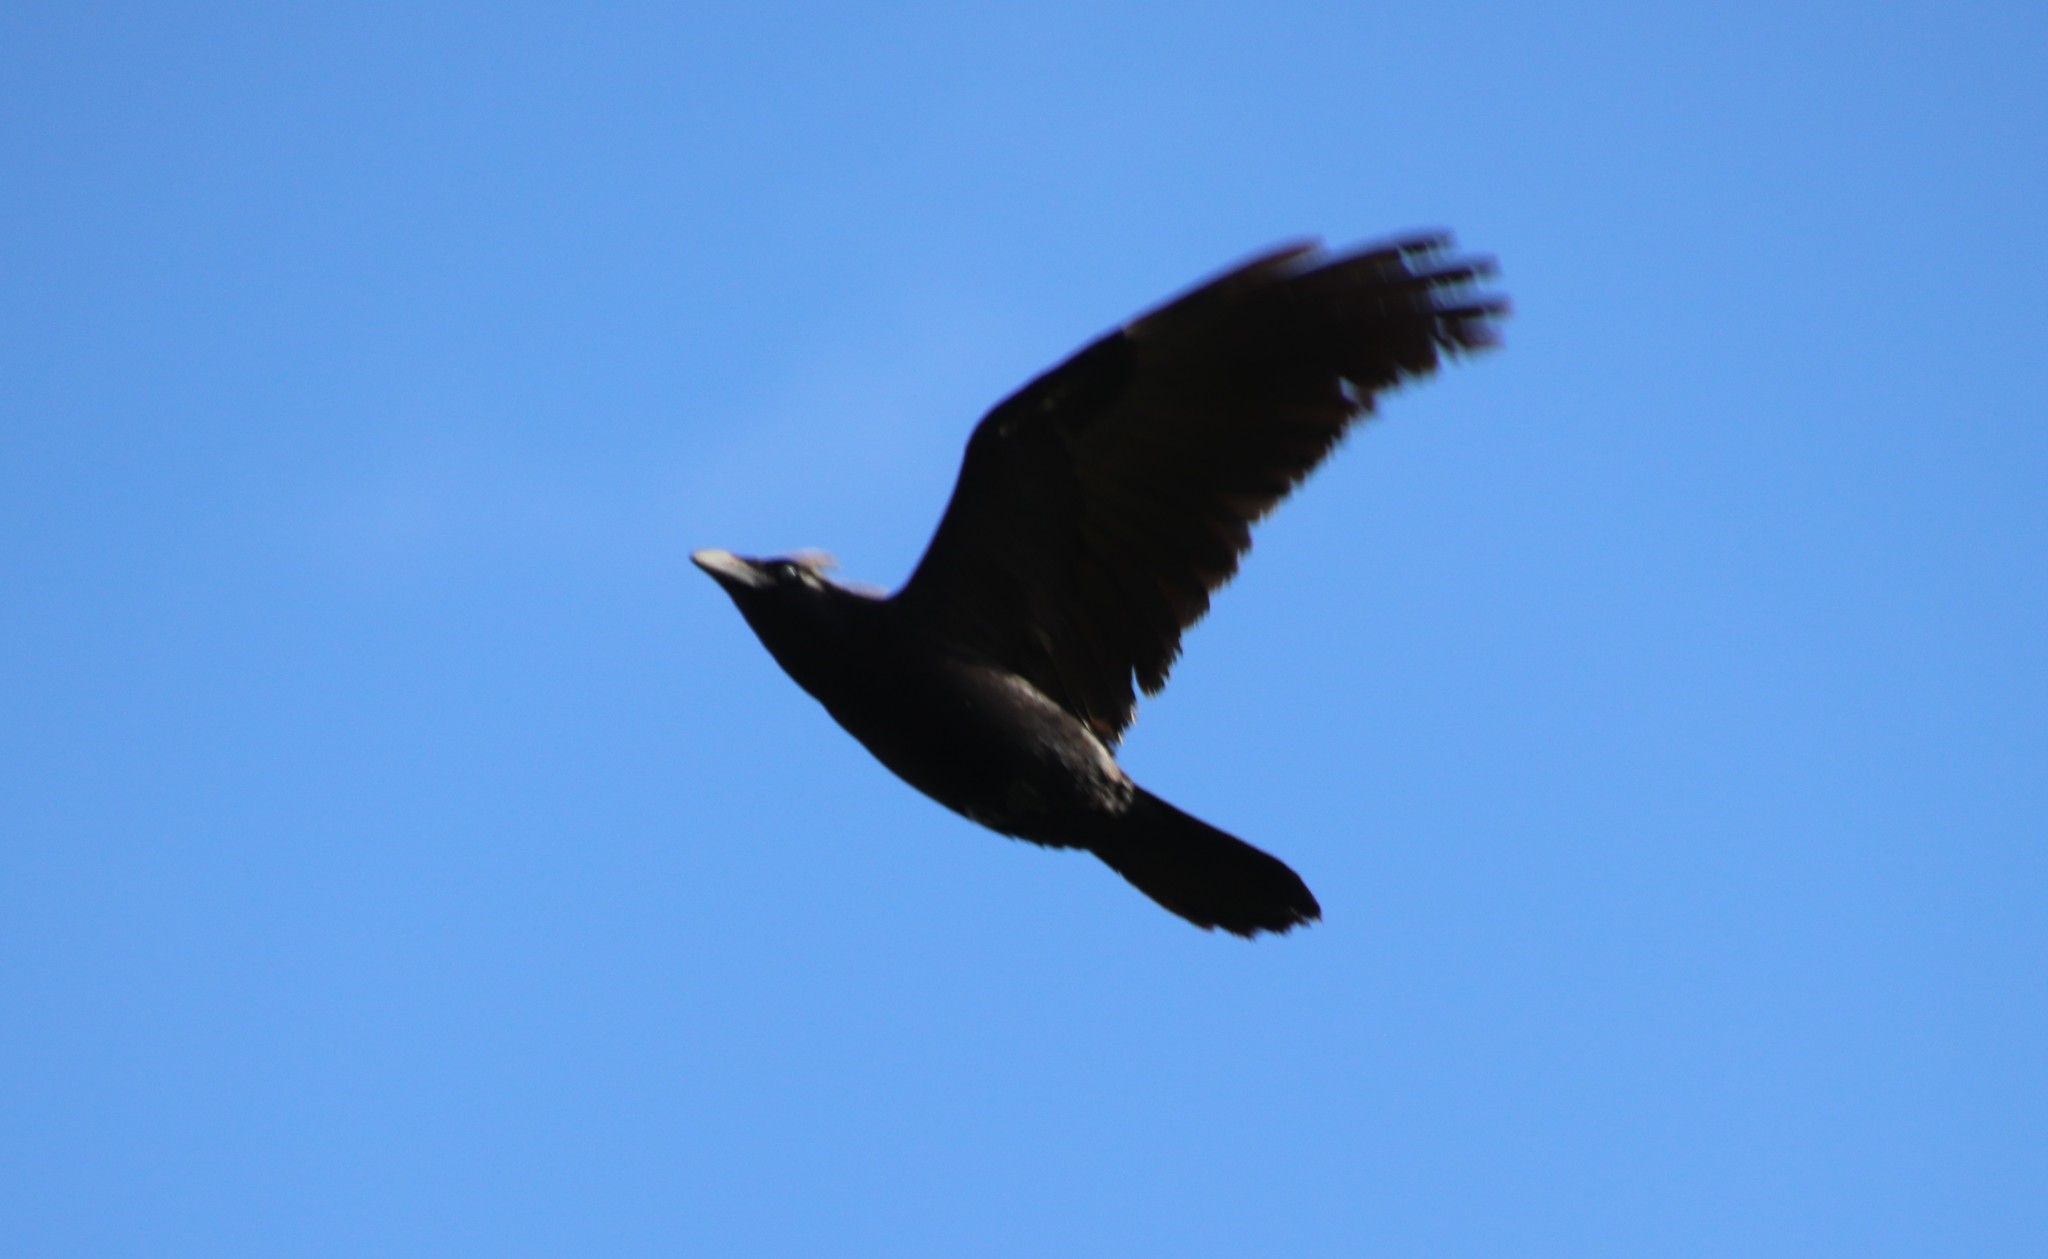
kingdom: Animalia
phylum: Chordata
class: Aves
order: Passeriformes
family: Corvidae
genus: Corvus
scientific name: Corvus corax
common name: Common raven
